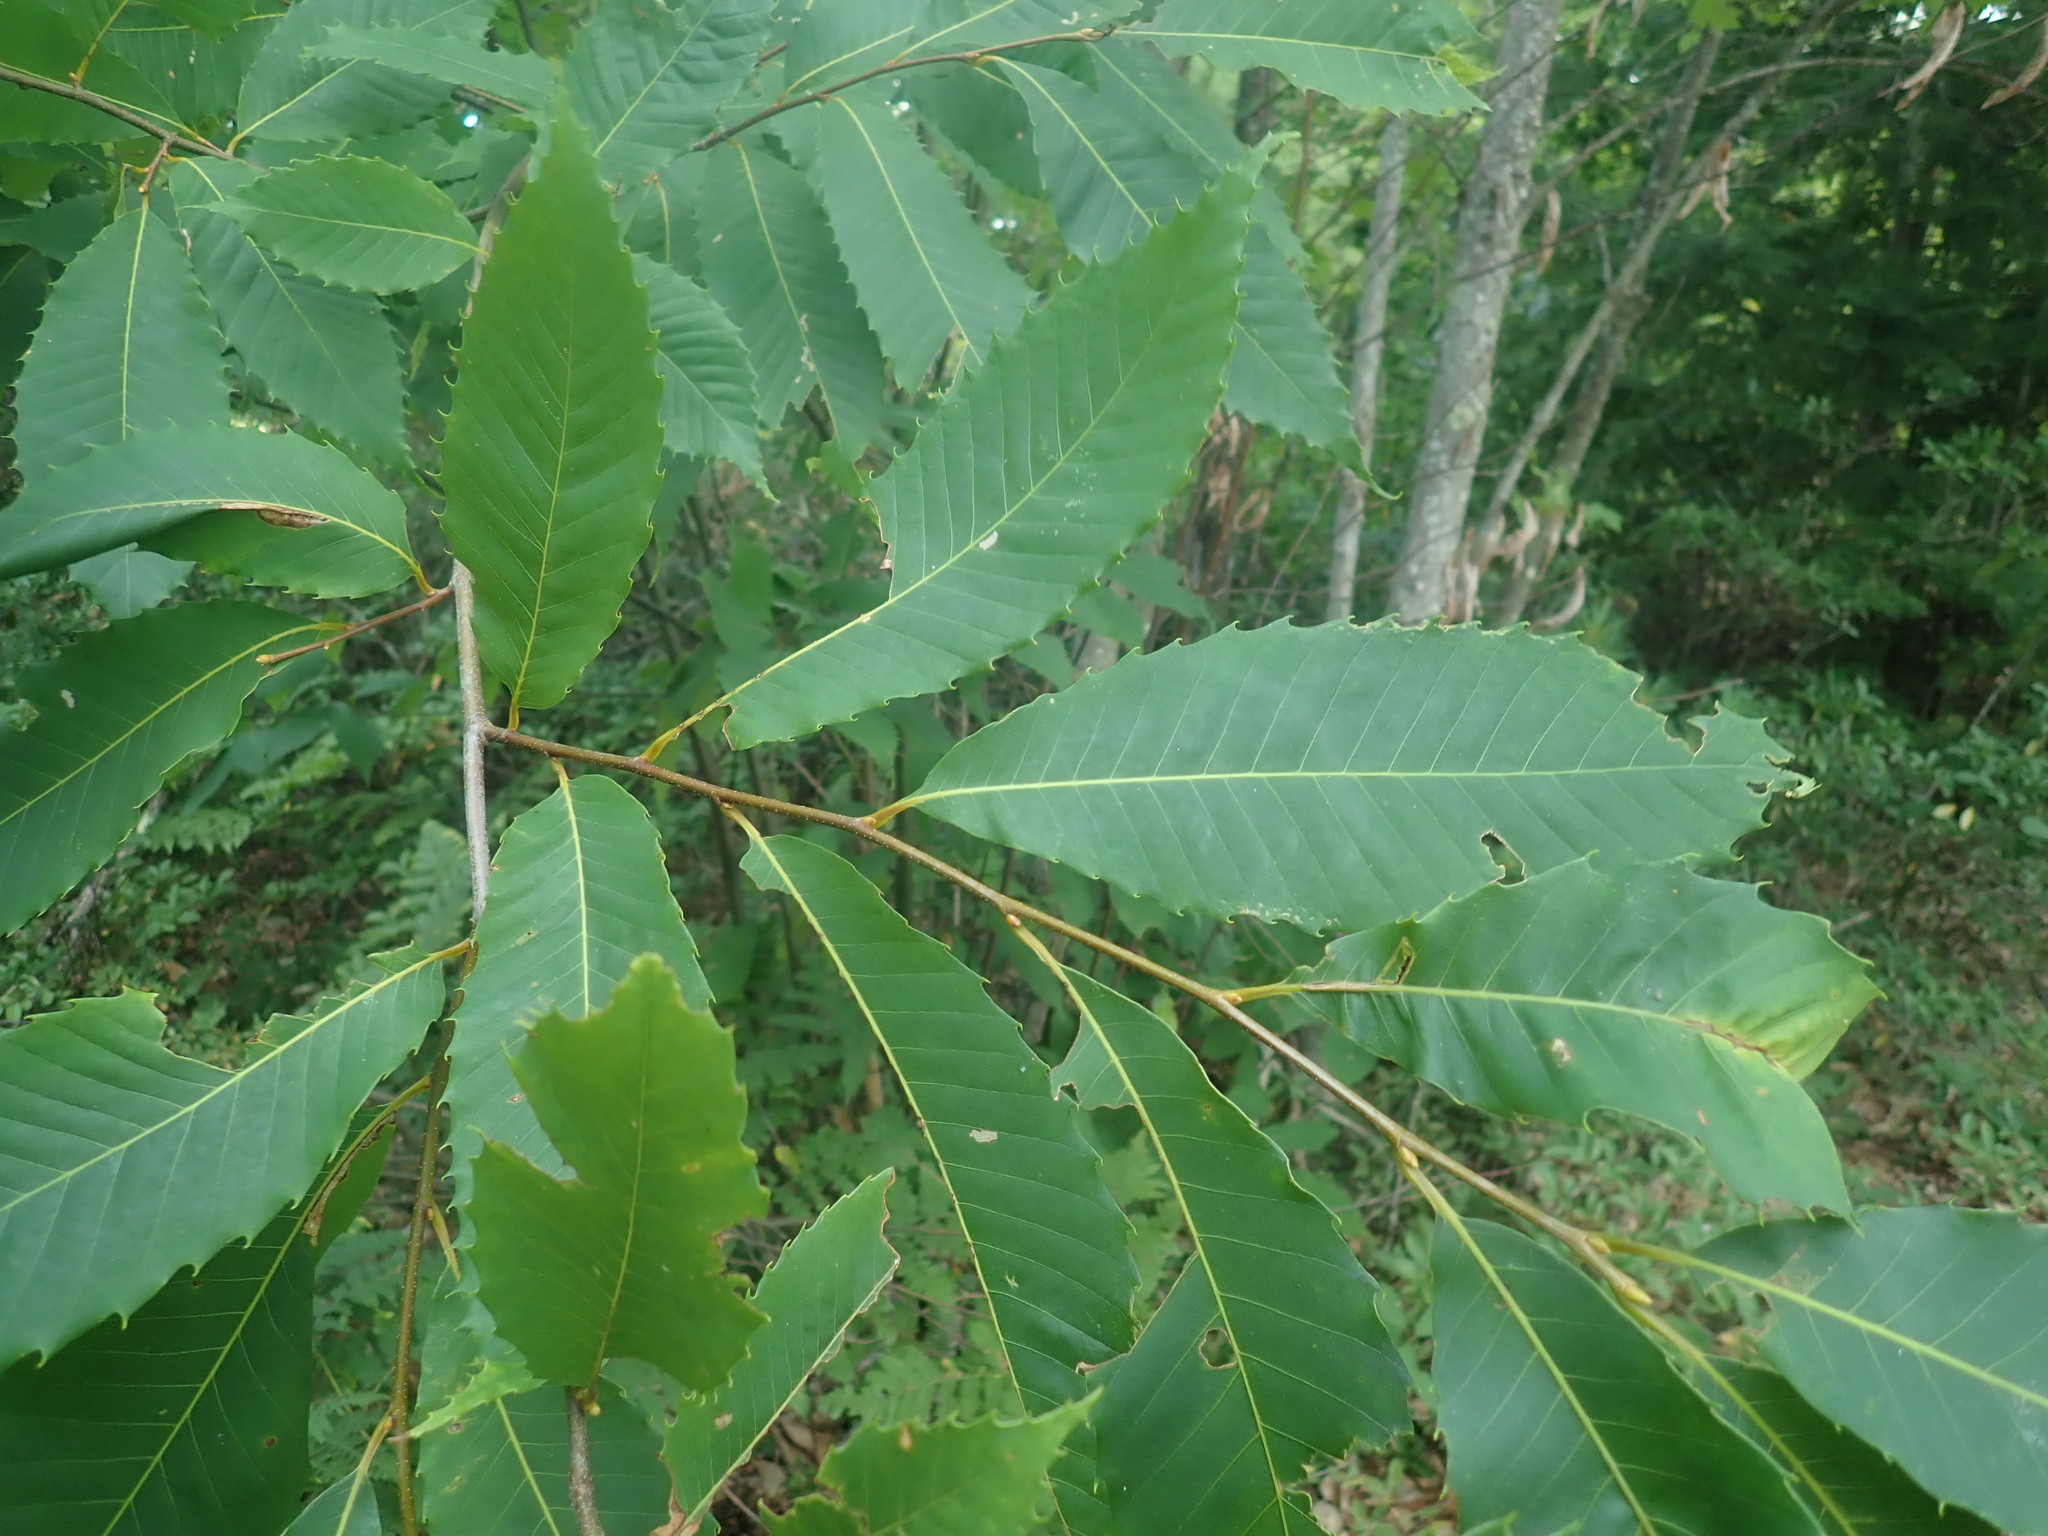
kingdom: Plantae
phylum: Tracheophyta
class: Magnoliopsida
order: Fagales
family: Fagaceae
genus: Castanea
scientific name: Castanea dentata
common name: American chestnut
